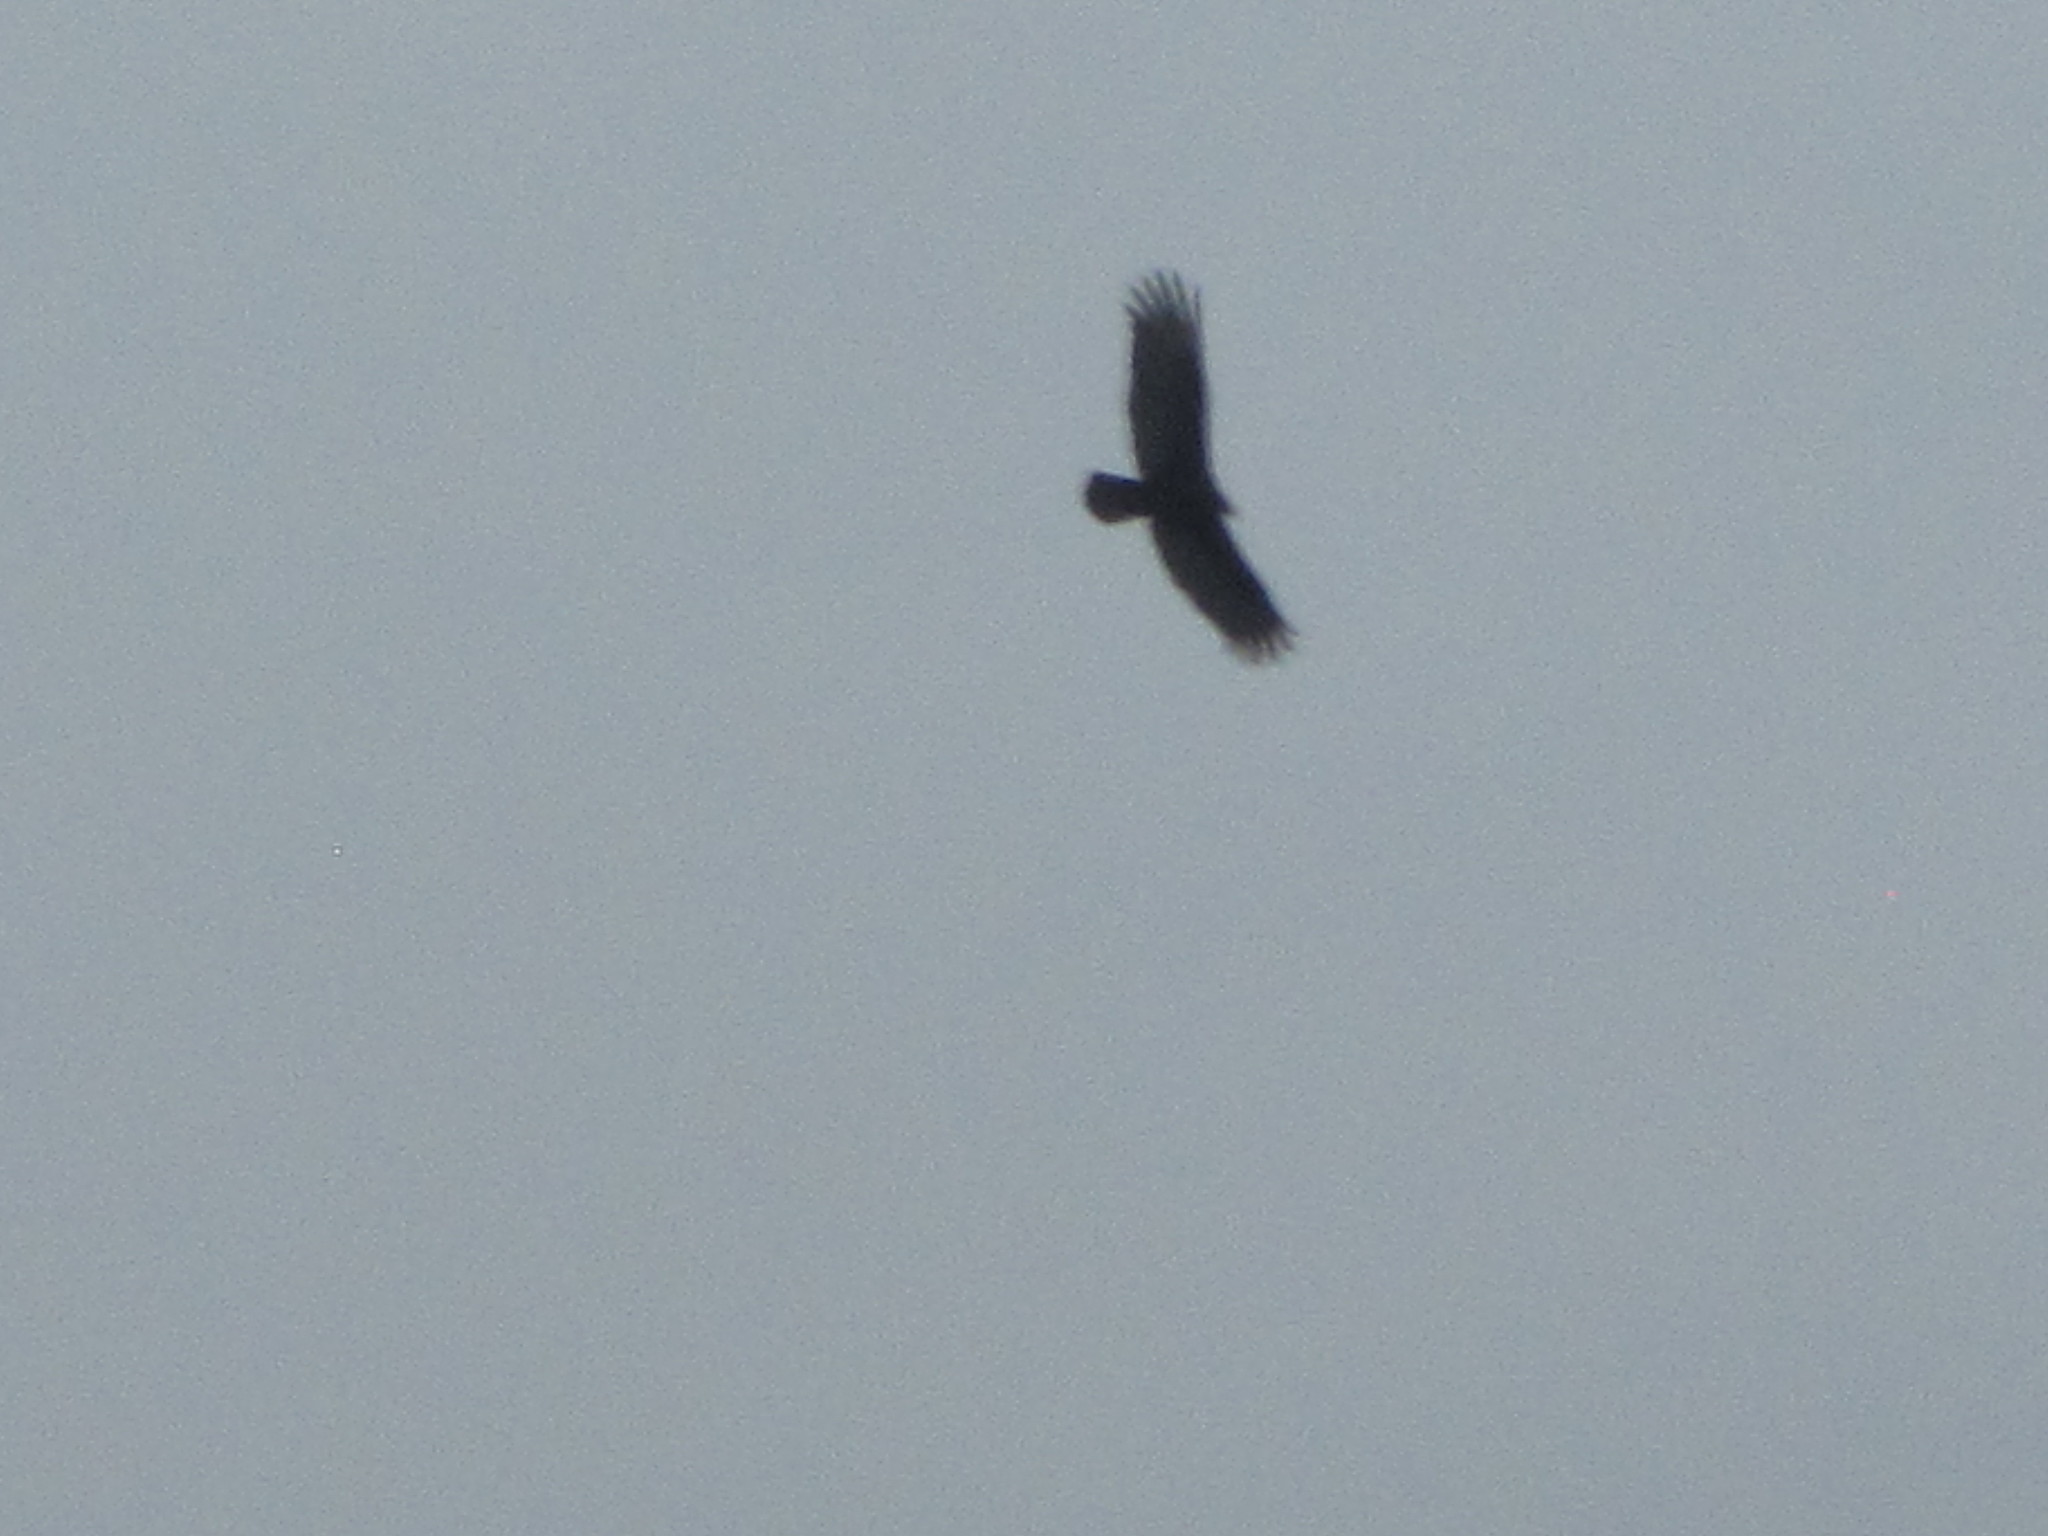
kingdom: Animalia
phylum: Chordata
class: Aves
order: Accipitriformes
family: Cathartidae
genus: Cathartes
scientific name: Cathartes aura
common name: Turkey vulture
